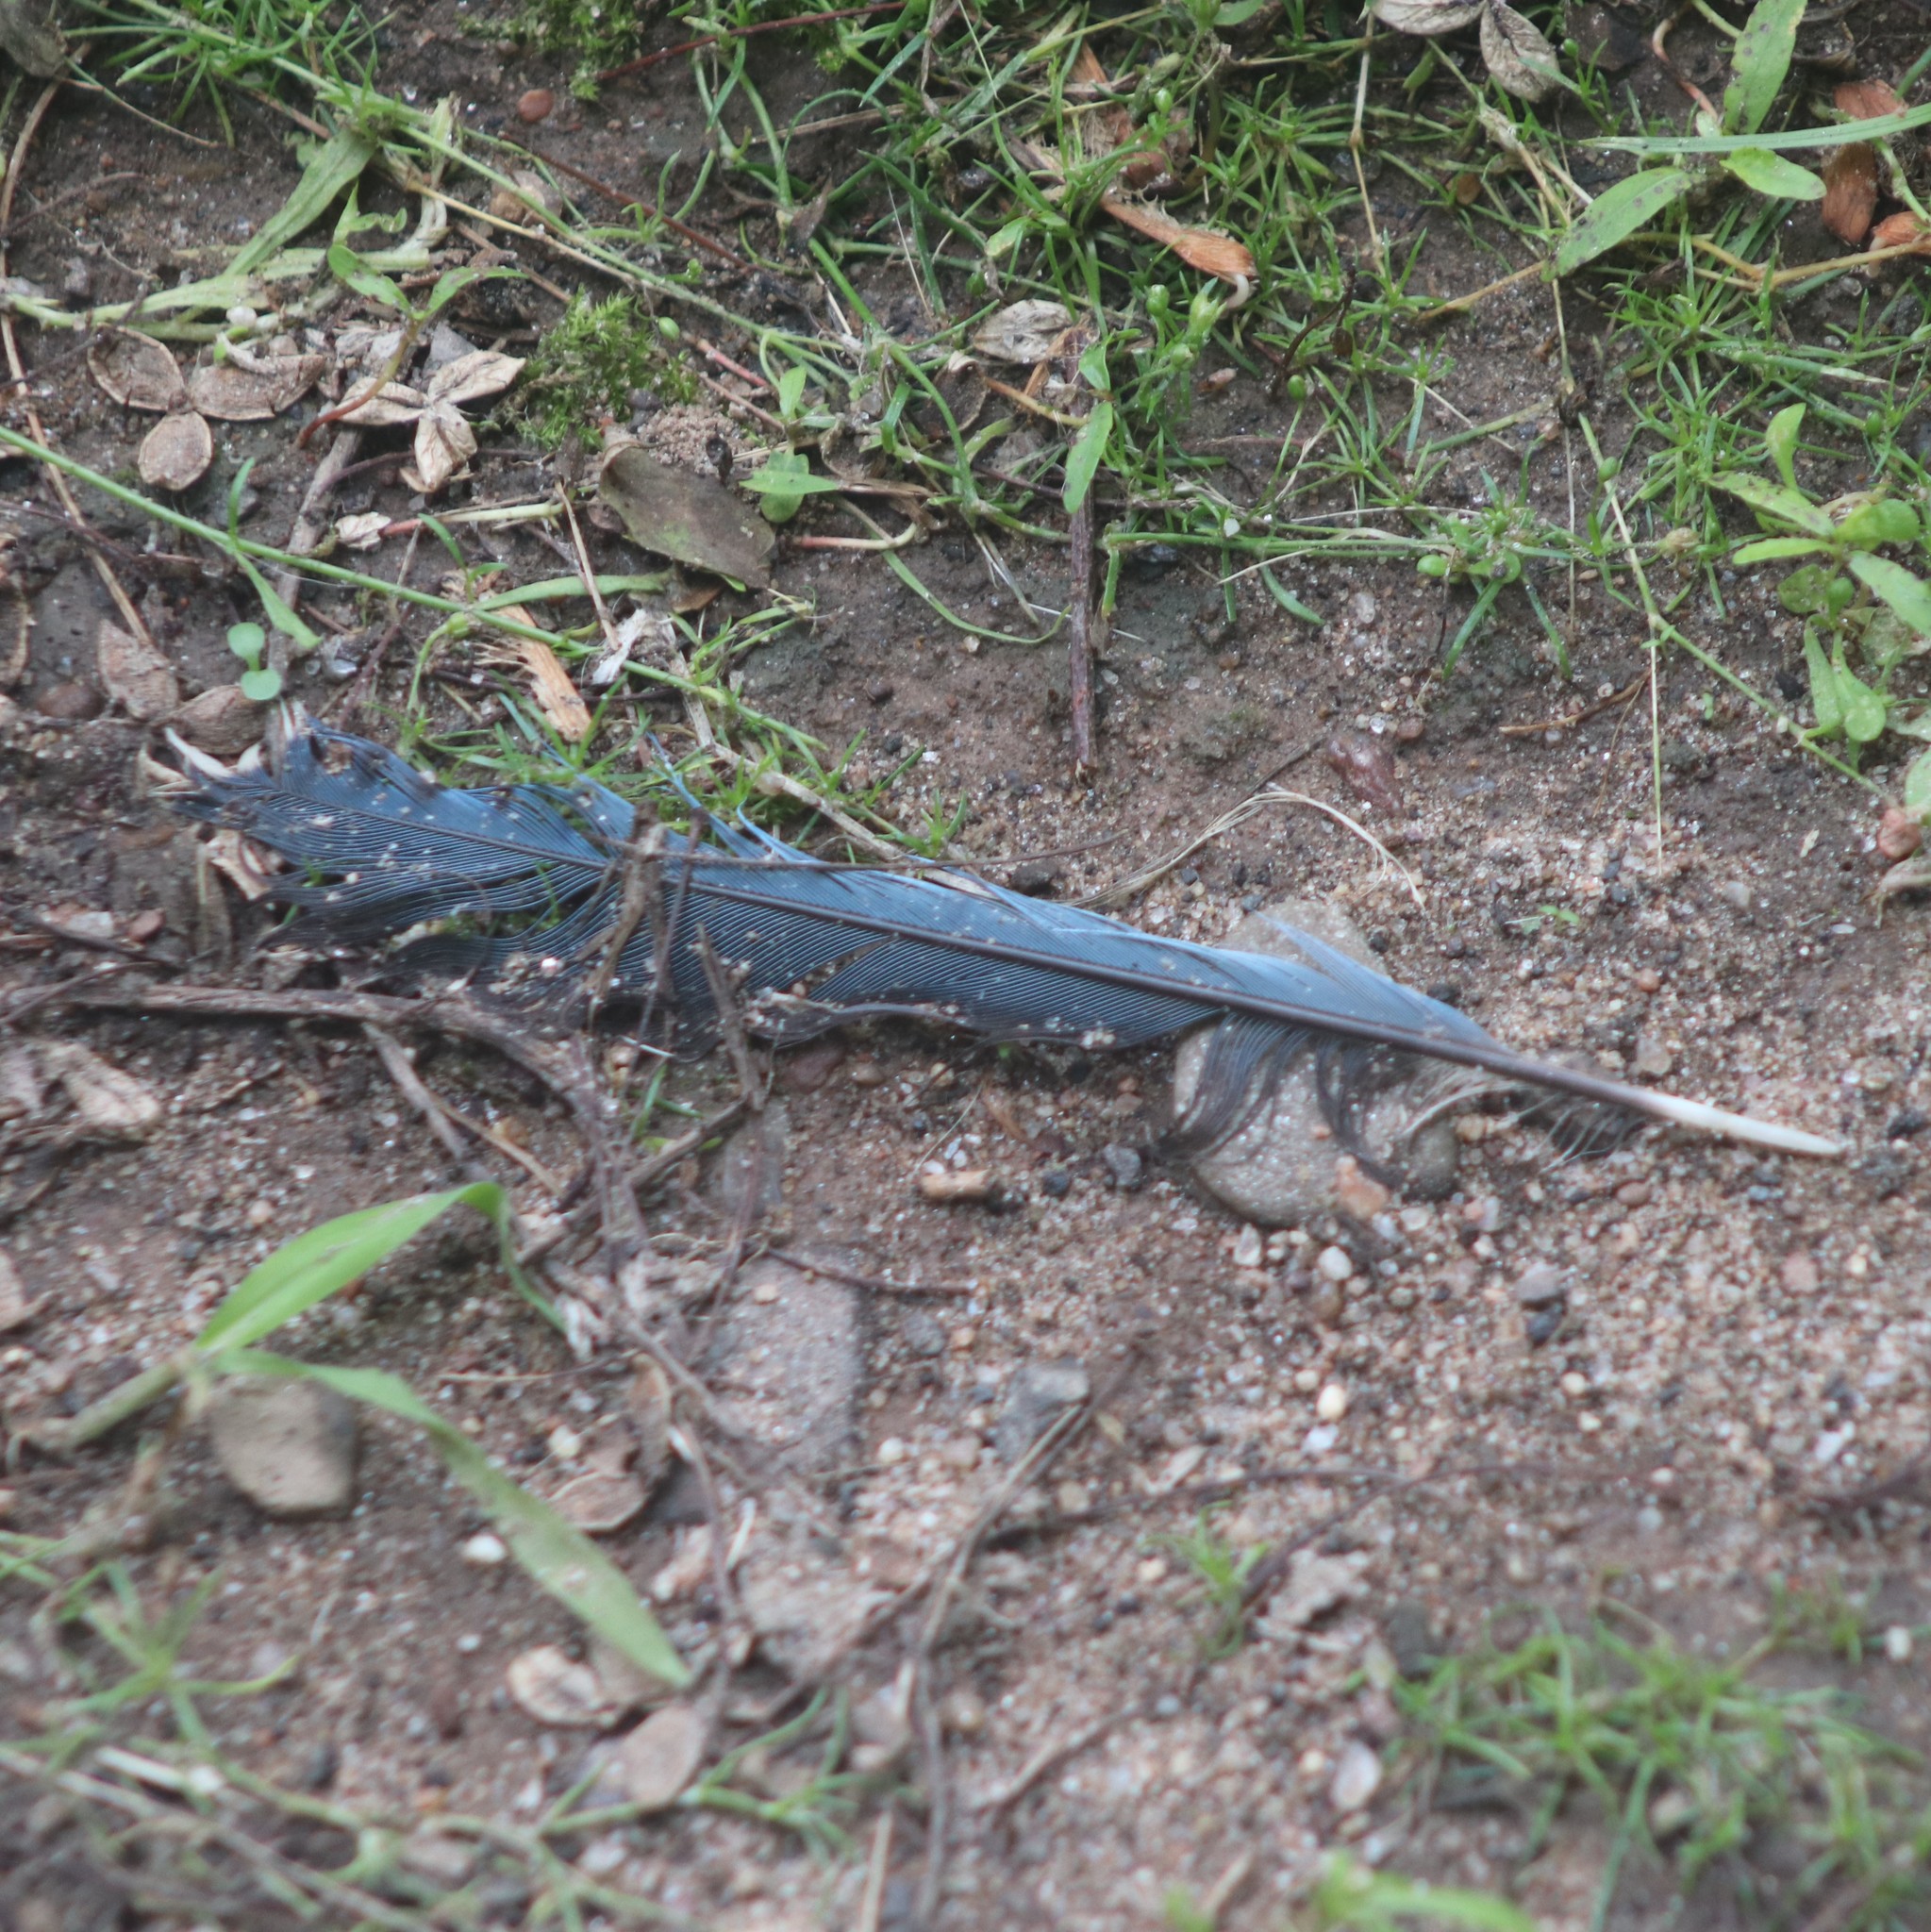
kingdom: Animalia
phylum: Chordata
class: Aves
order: Passeriformes
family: Corvidae
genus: Cyanocitta
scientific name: Cyanocitta cristata
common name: Blue jay
